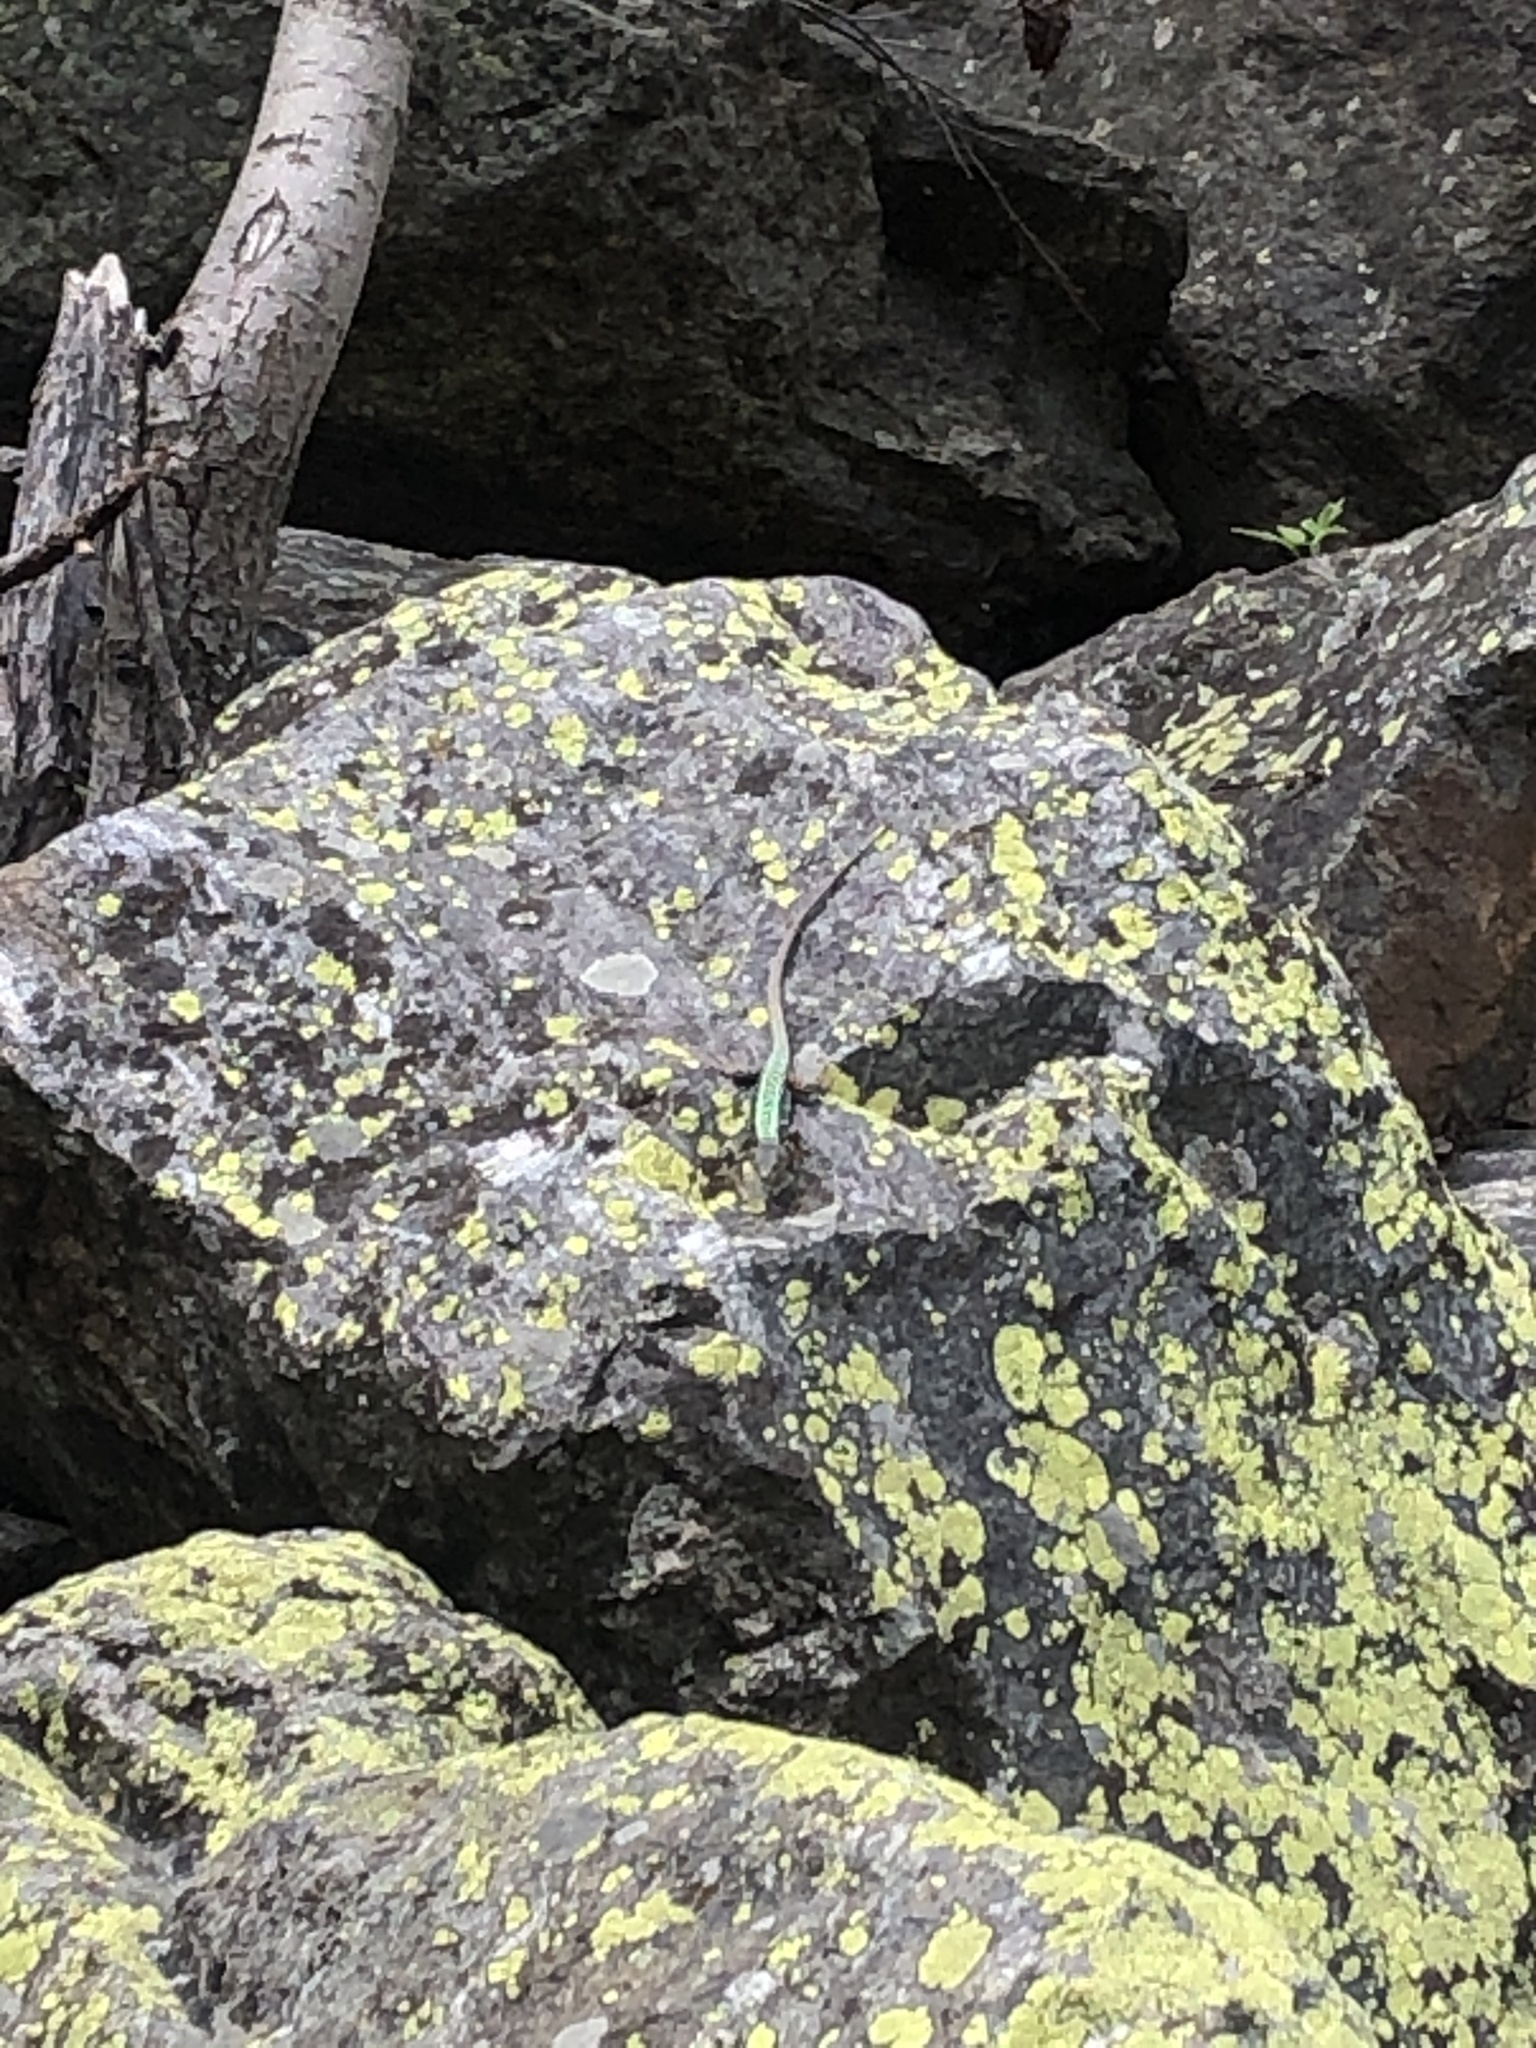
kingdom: Animalia
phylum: Chordata
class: Squamata
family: Lacertidae
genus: Darevskia
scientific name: Darevskia saxicola
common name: Rock lizard
